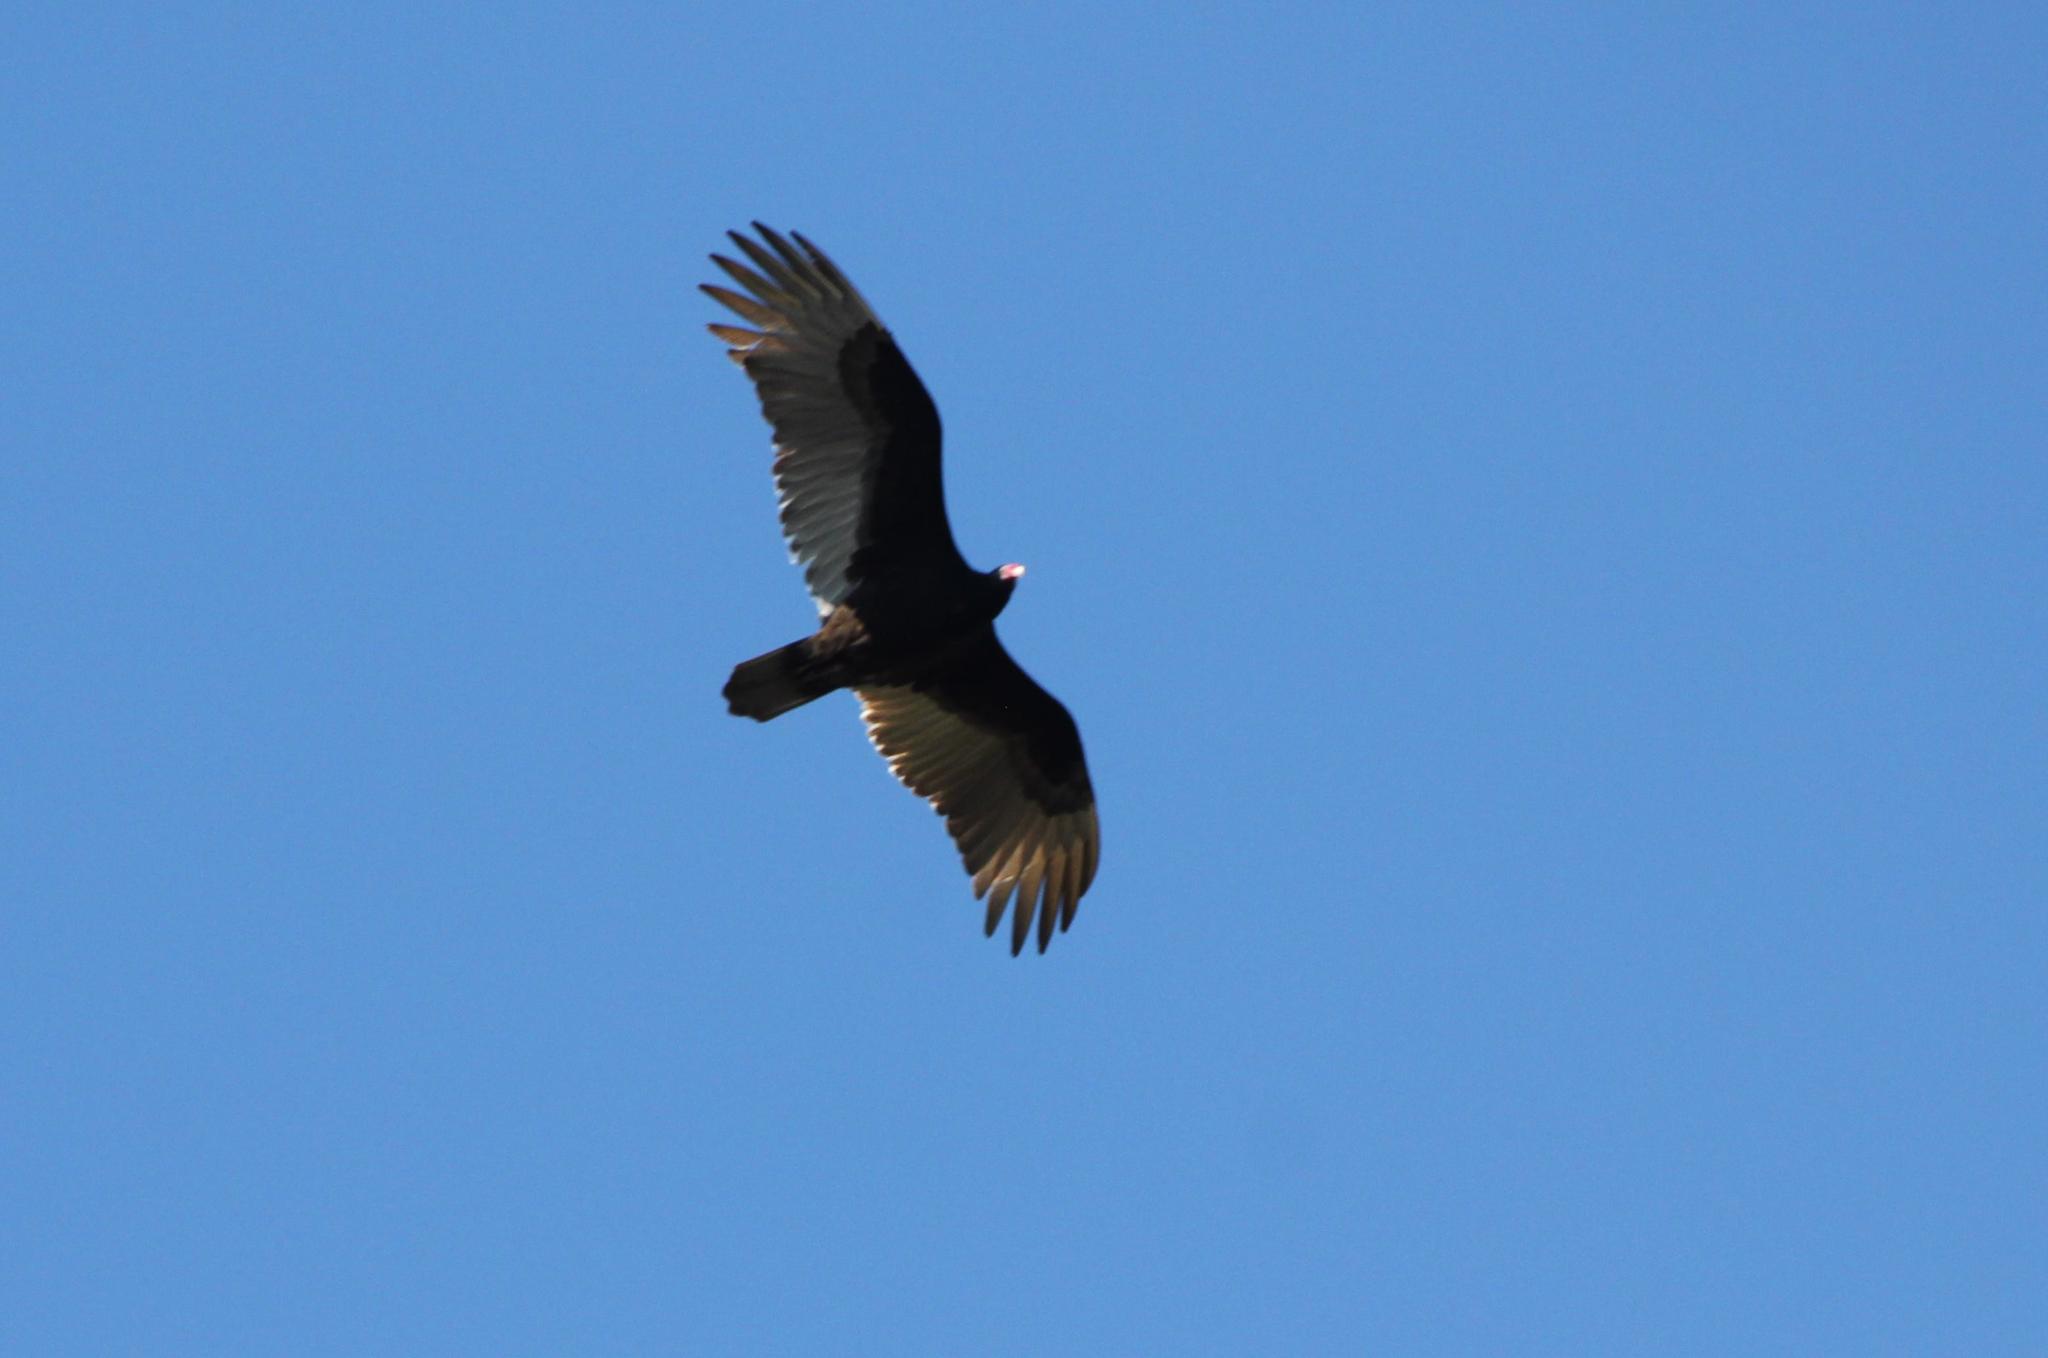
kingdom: Animalia
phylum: Chordata
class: Aves
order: Accipitriformes
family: Cathartidae
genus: Cathartes
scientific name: Cathartes aura
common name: Turkey vulture
